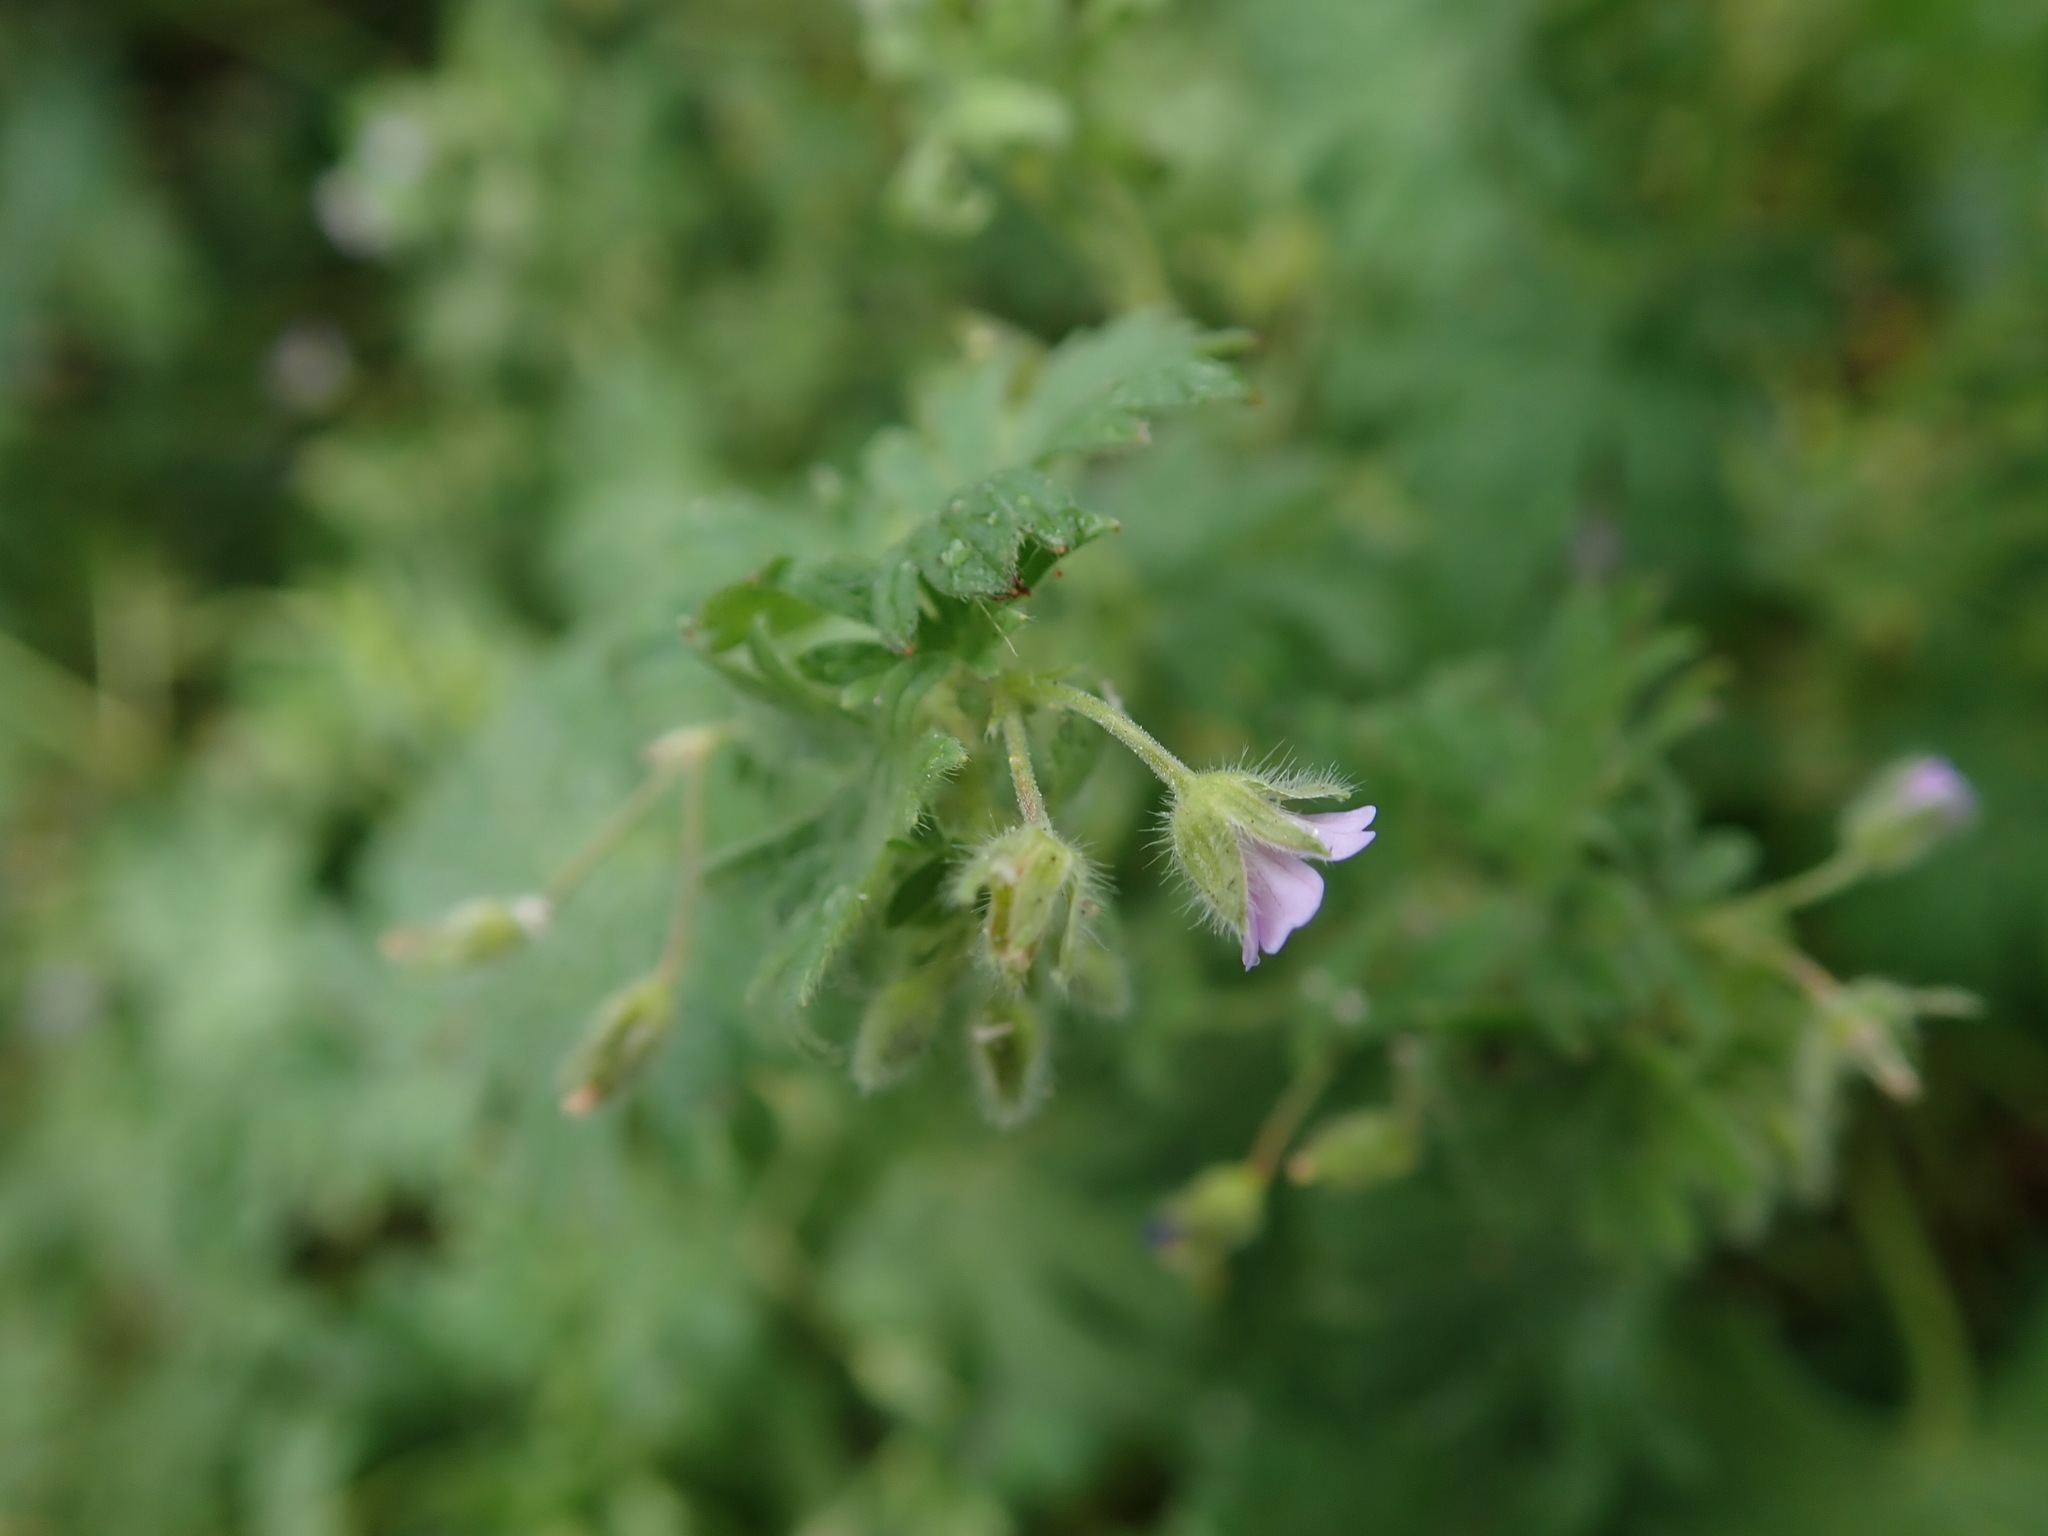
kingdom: Plantae
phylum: Tracheophyta
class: Magnoliopsida
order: Geraniales
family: Geraniaceae
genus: Geranium
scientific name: Geranium pusillum
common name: Small geranium
